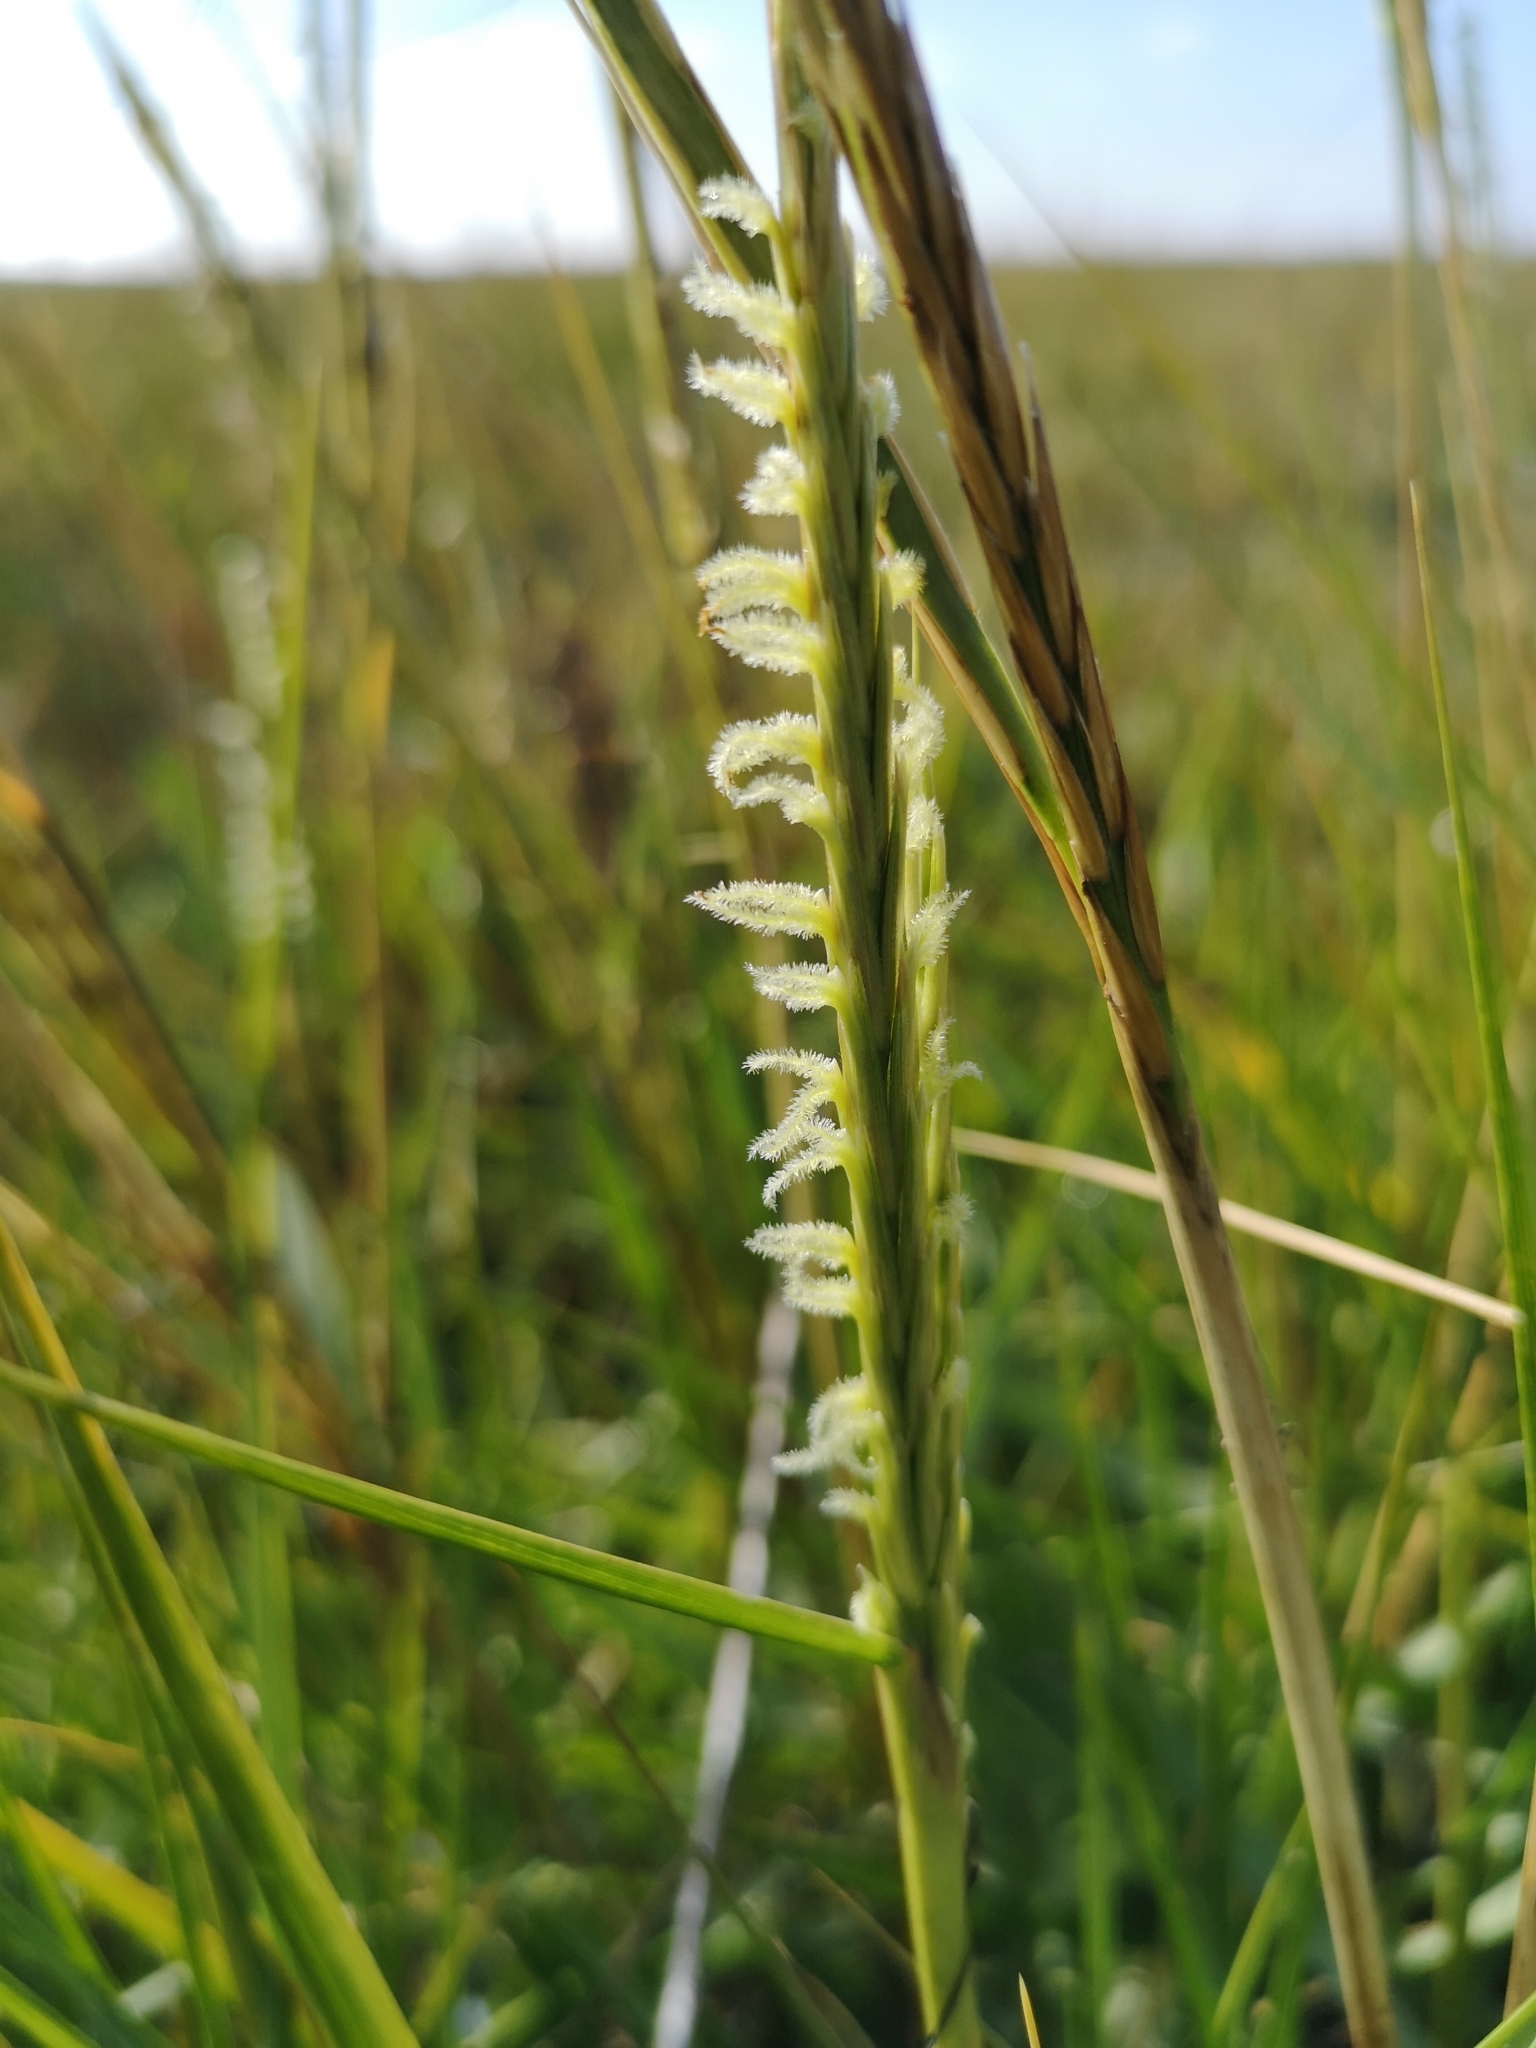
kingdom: Plantae
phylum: Tracheophyta
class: Liliopsida
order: Poales
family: Poaceae
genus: Sporobolus
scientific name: Sporobolus townsendii
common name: Townsend's cordgrass
